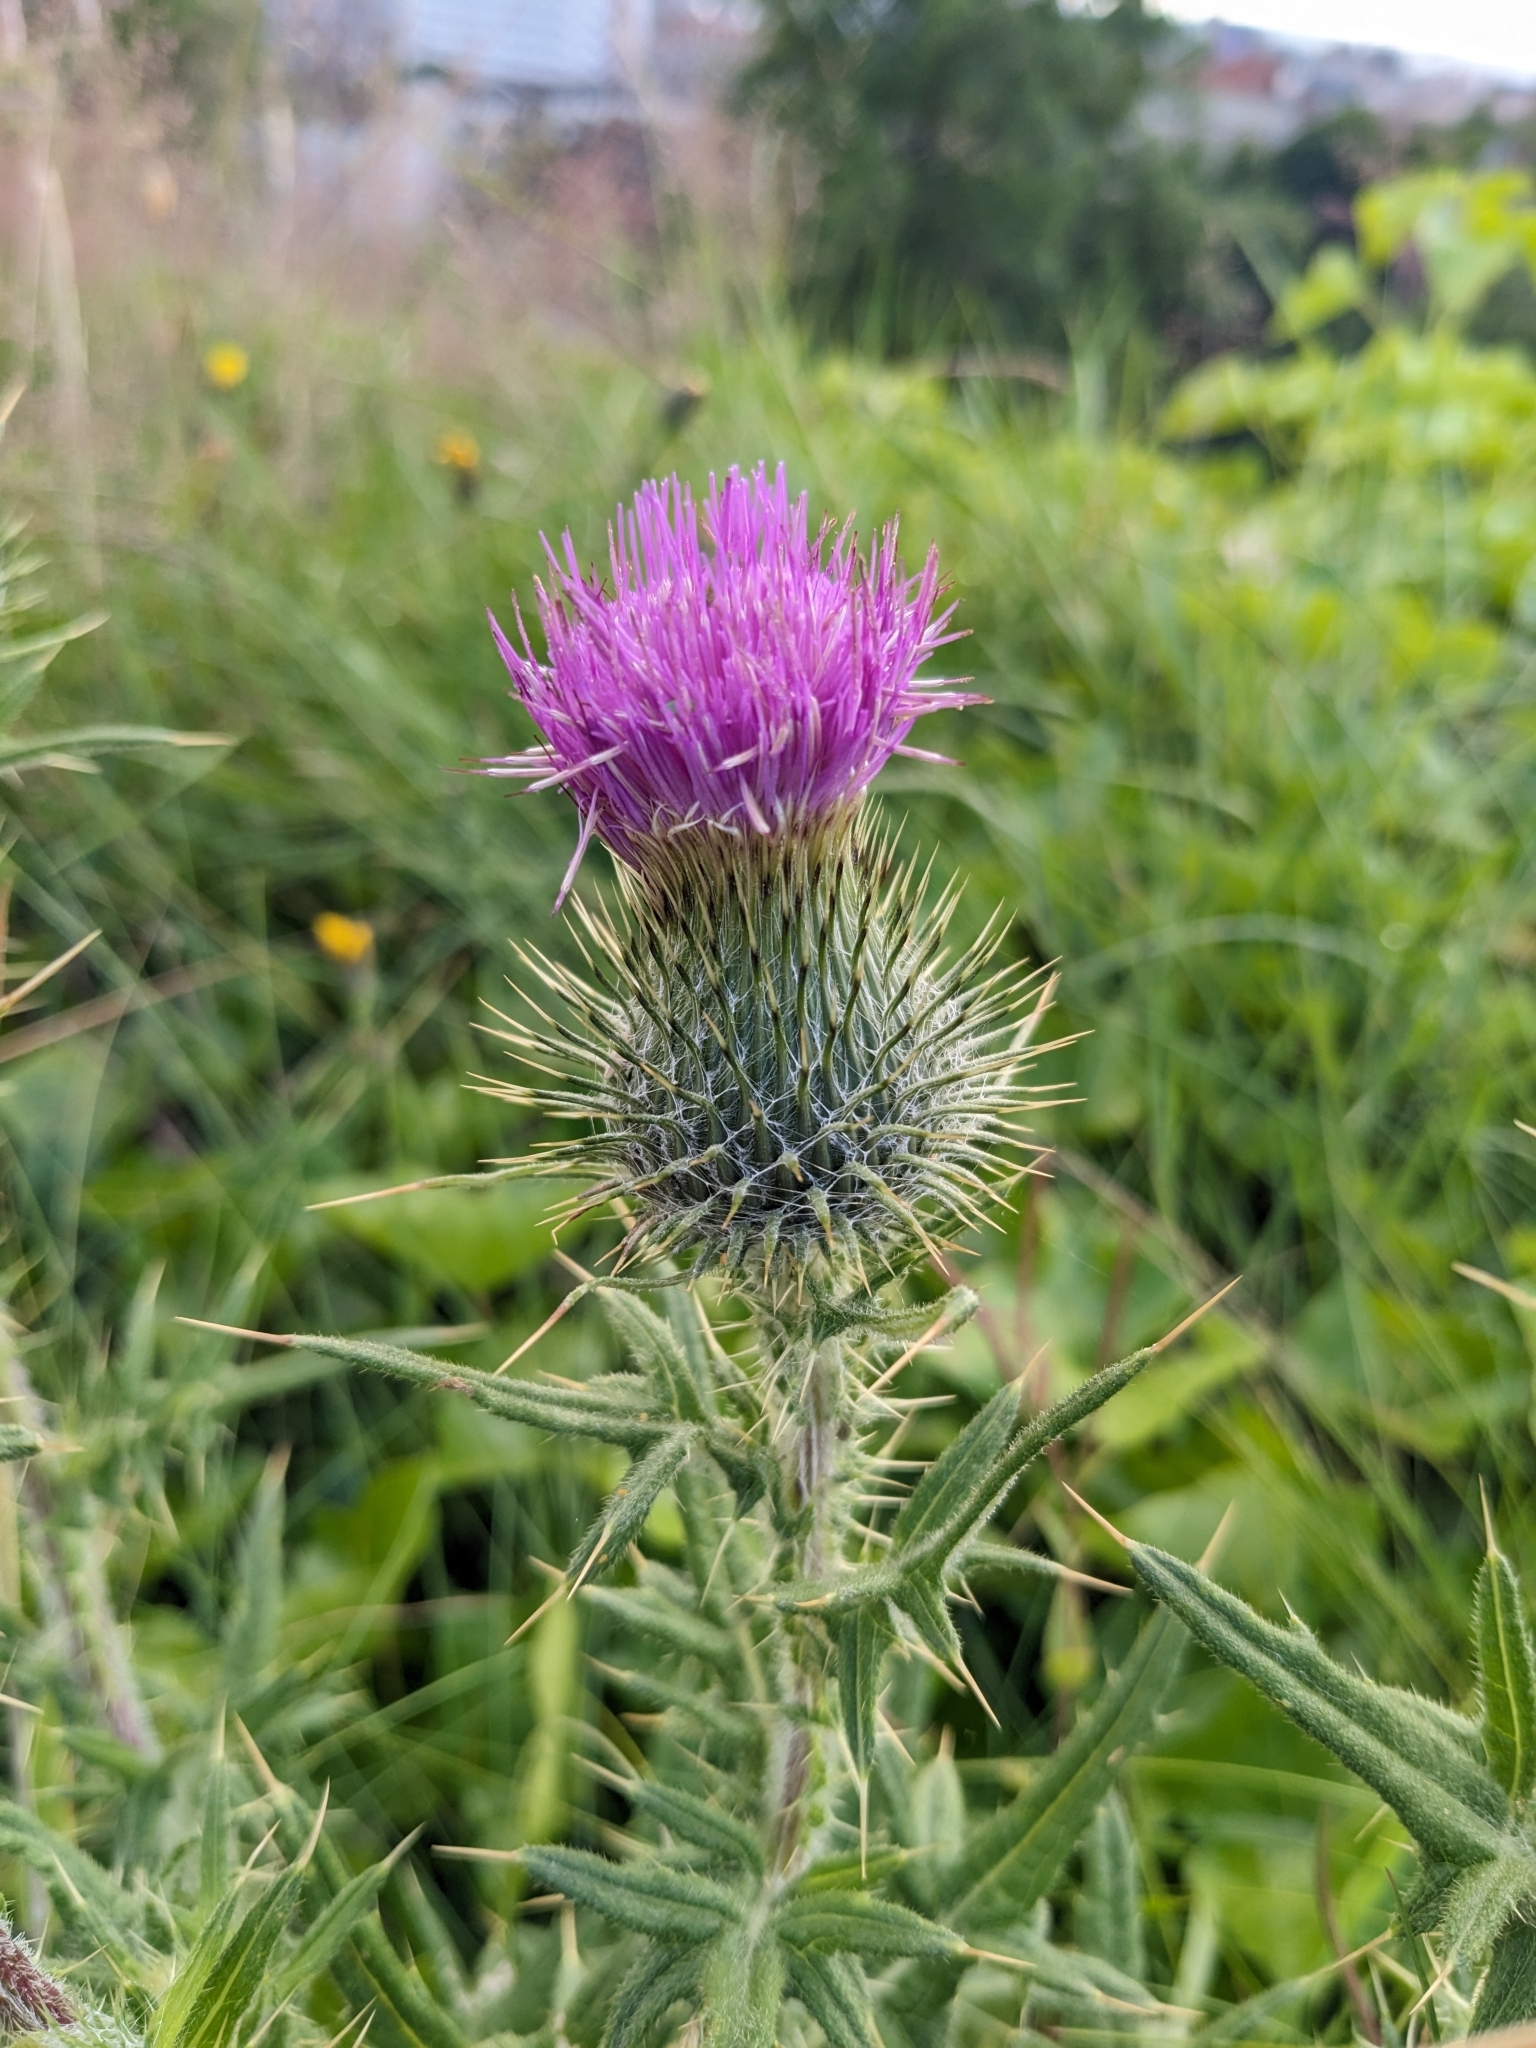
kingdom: Plantae
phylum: Tracheophyta
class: Magnoliopsida
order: Asterales
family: Asteraceae
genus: Cirsium
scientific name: Cirsium vulgare
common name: Bull thistle
